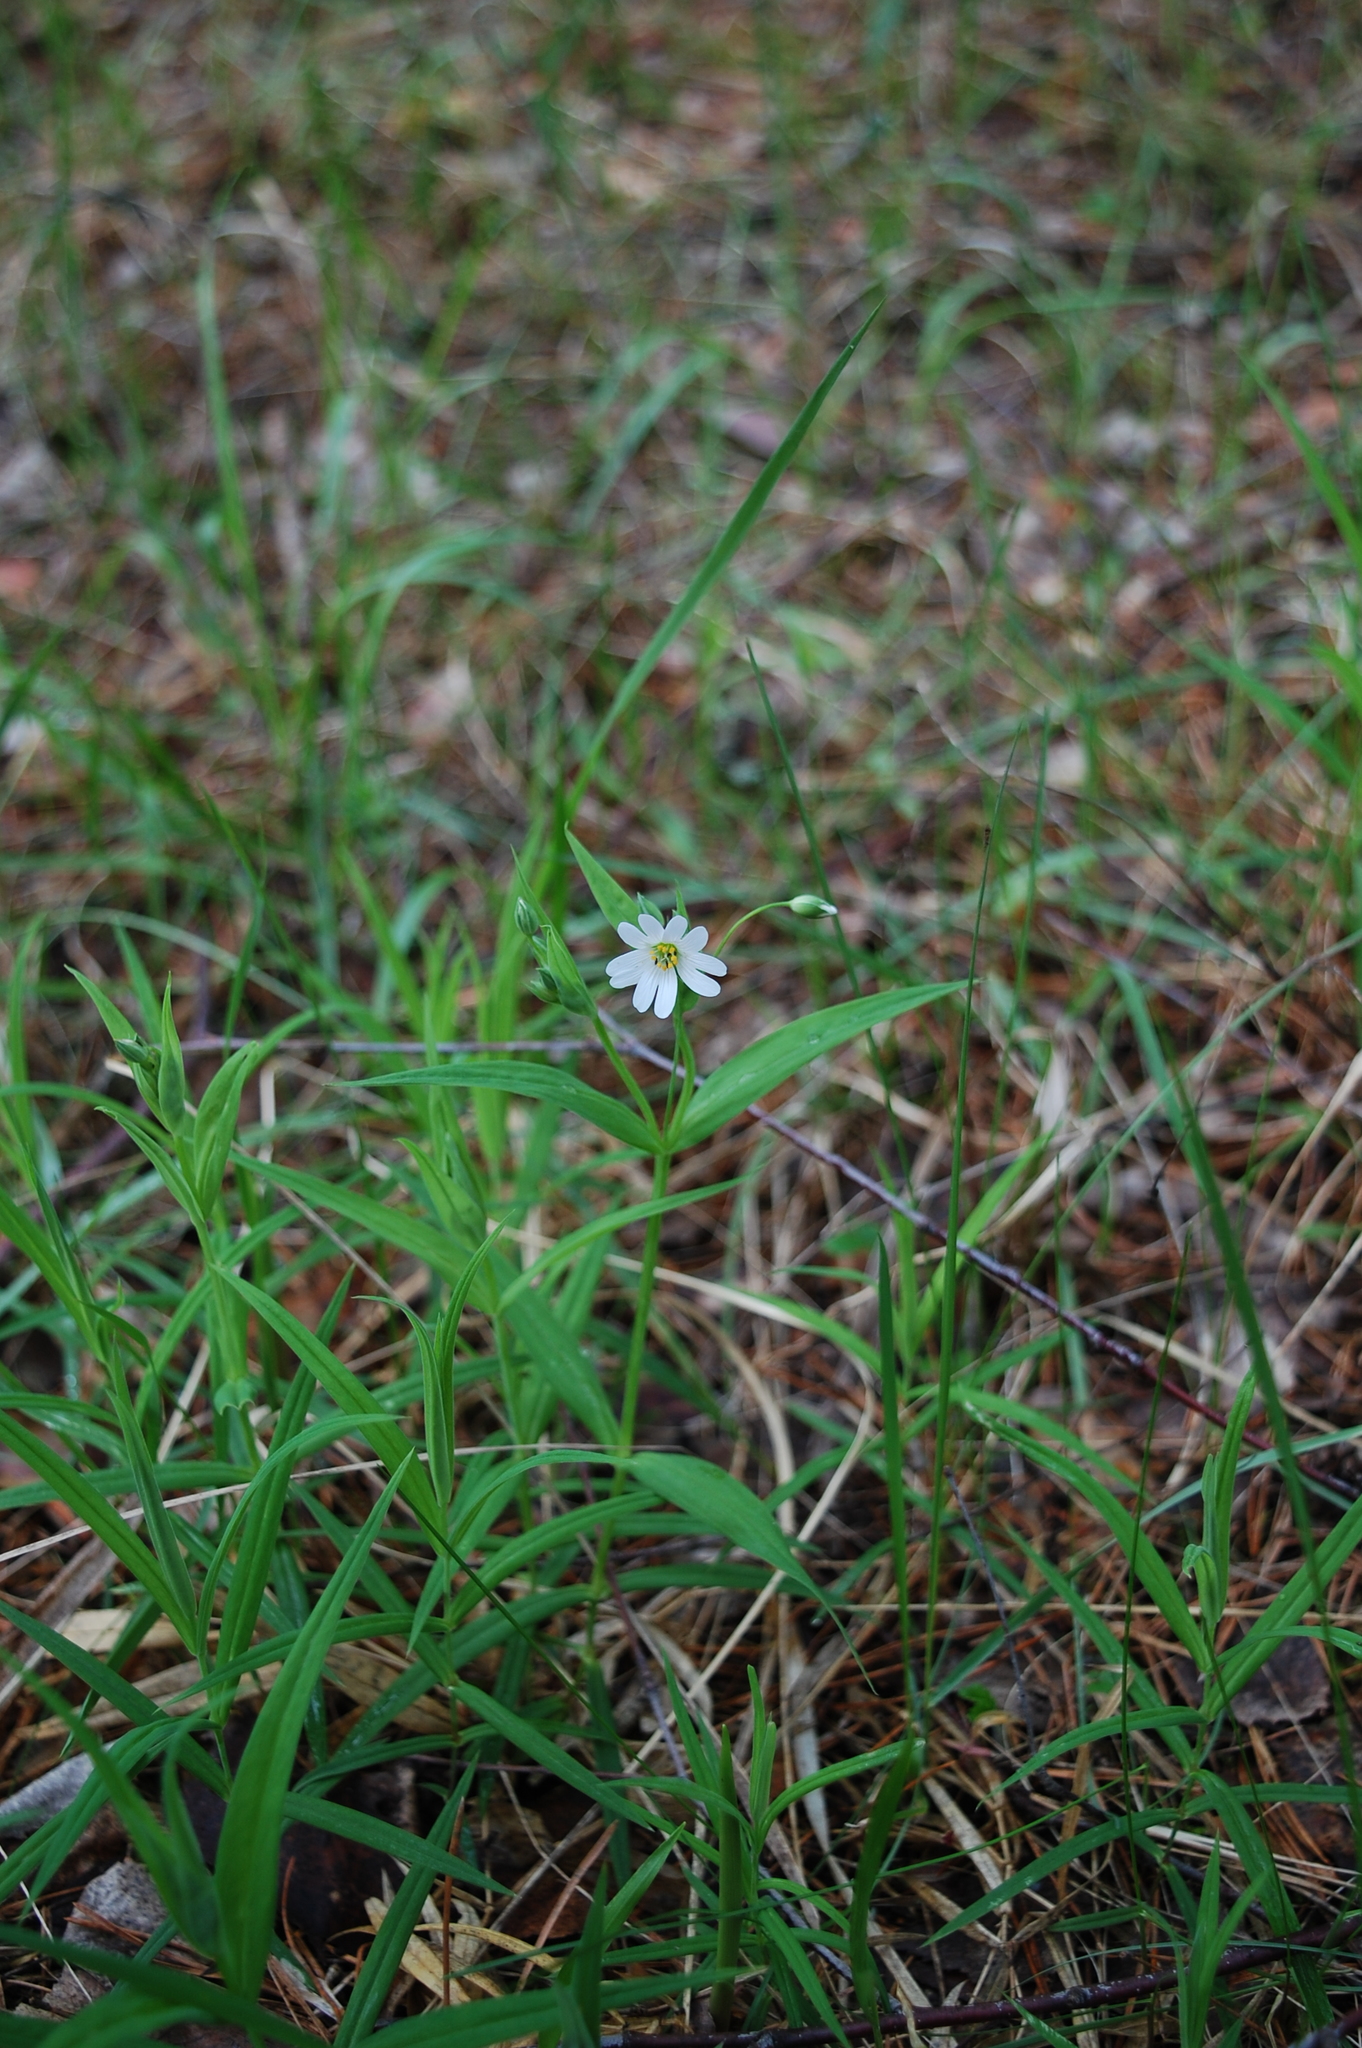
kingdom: Plantae
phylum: Tracheophyta
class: Magnoliopsida
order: Caryophyllales
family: Caryophyllaceae
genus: Rabelera
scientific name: Rabelera holostea
